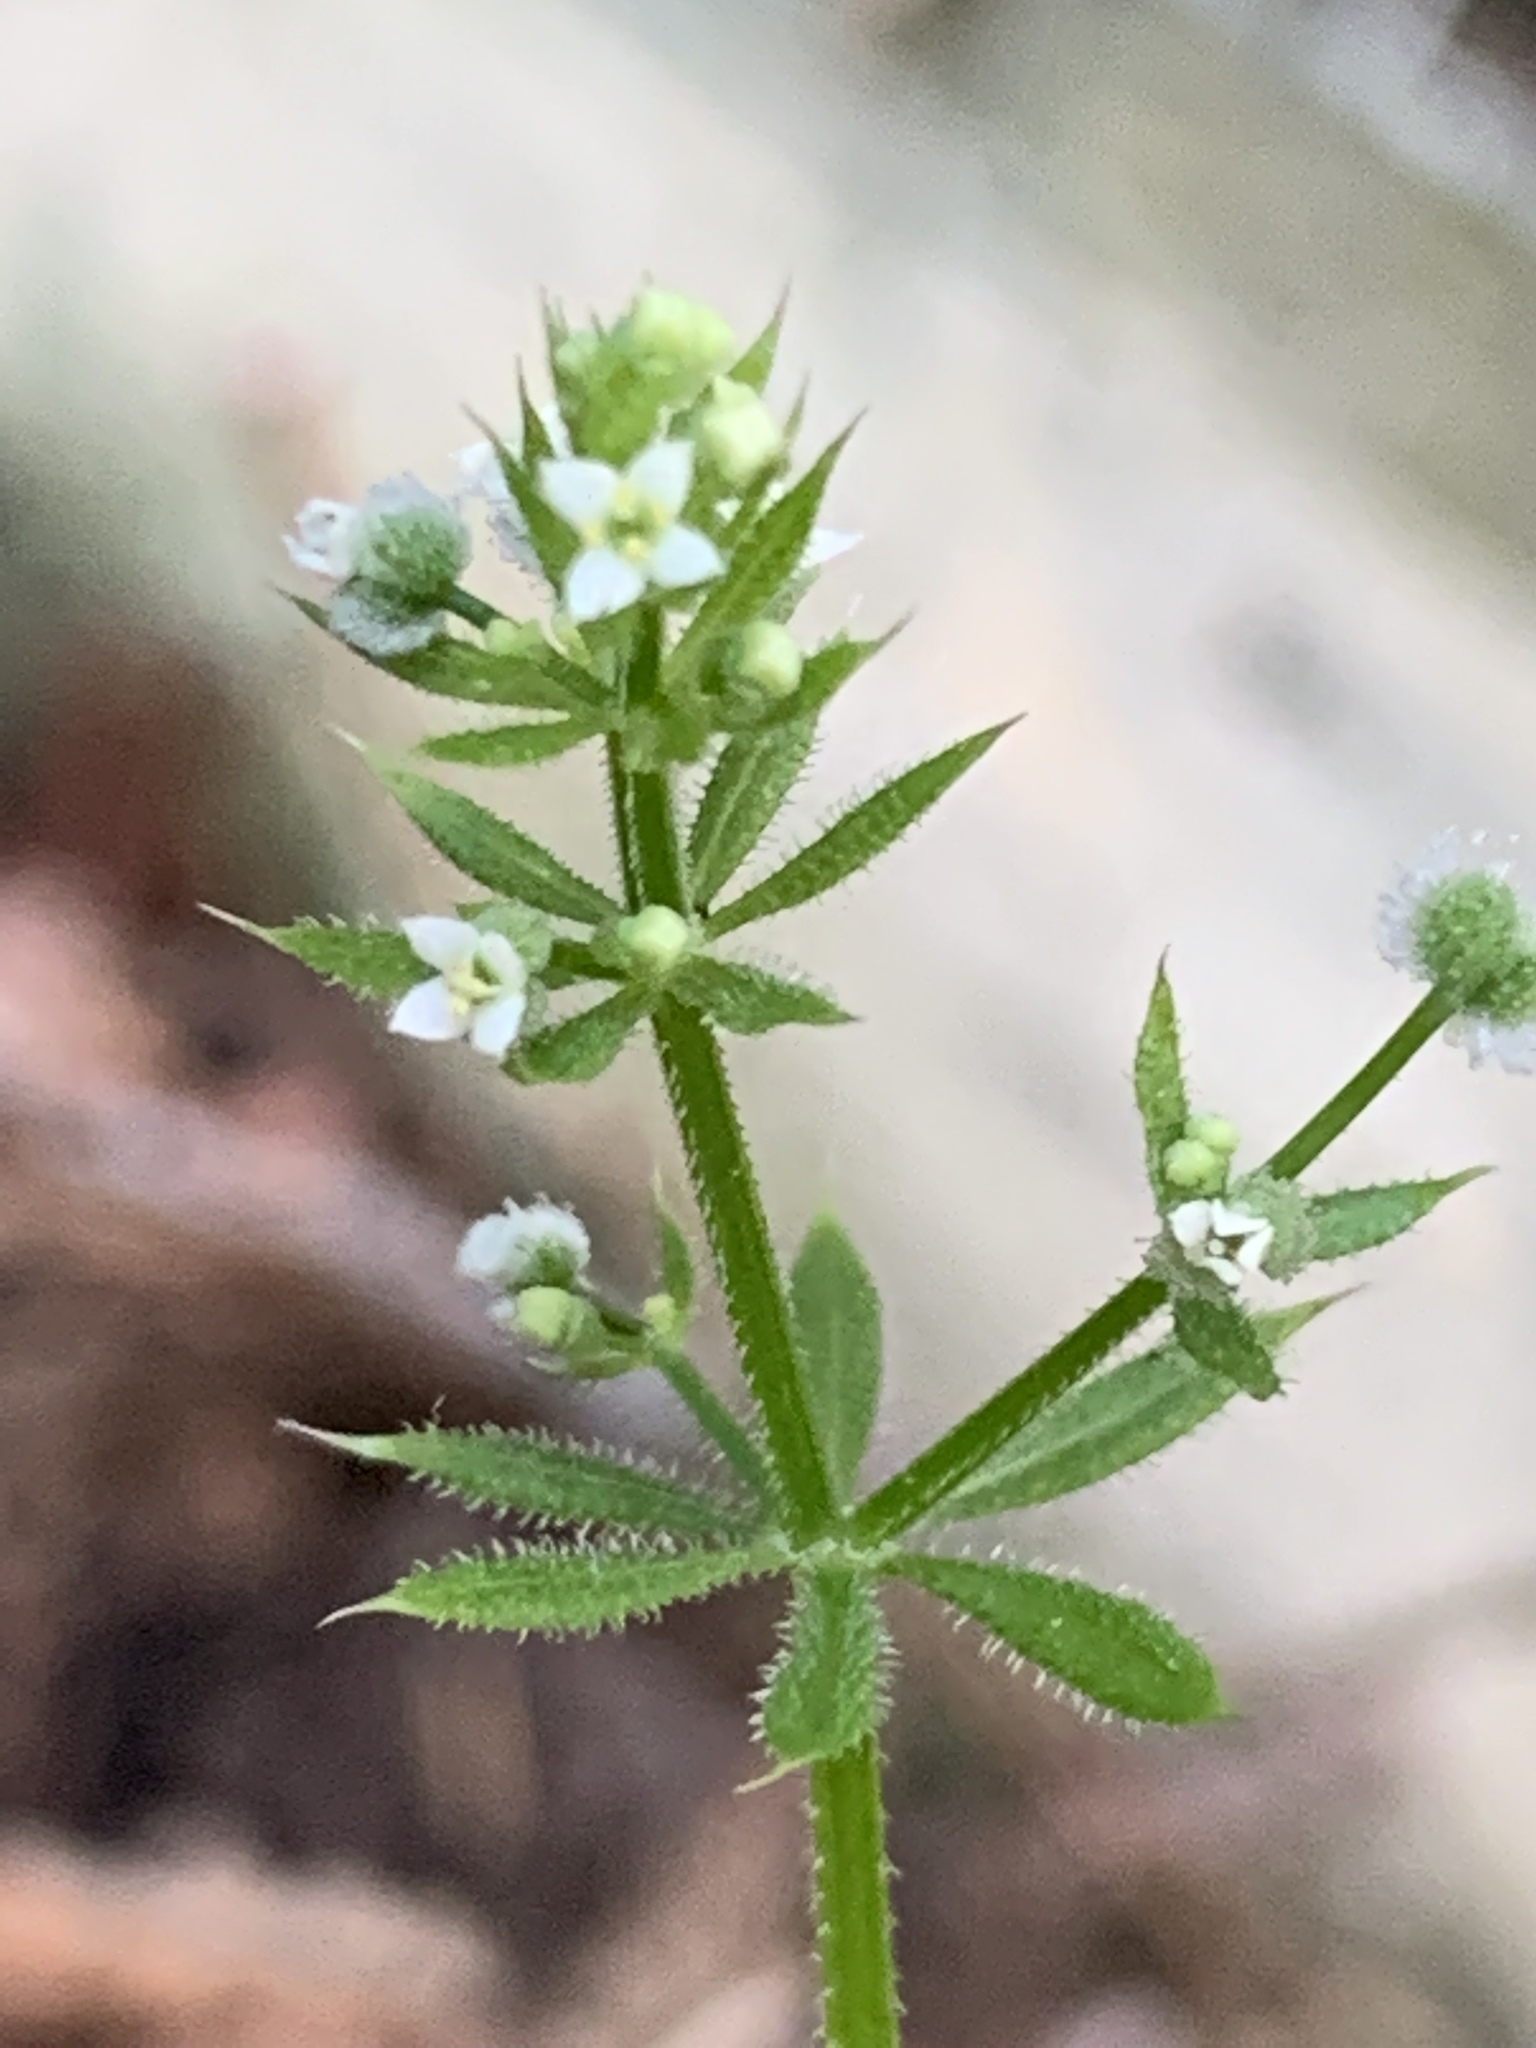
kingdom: Plantae
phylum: Tracheophyta
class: Magnoliopsida
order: Gentianales
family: Rubiaceae
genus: Galium
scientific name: Galium aparine
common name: Cleavers
